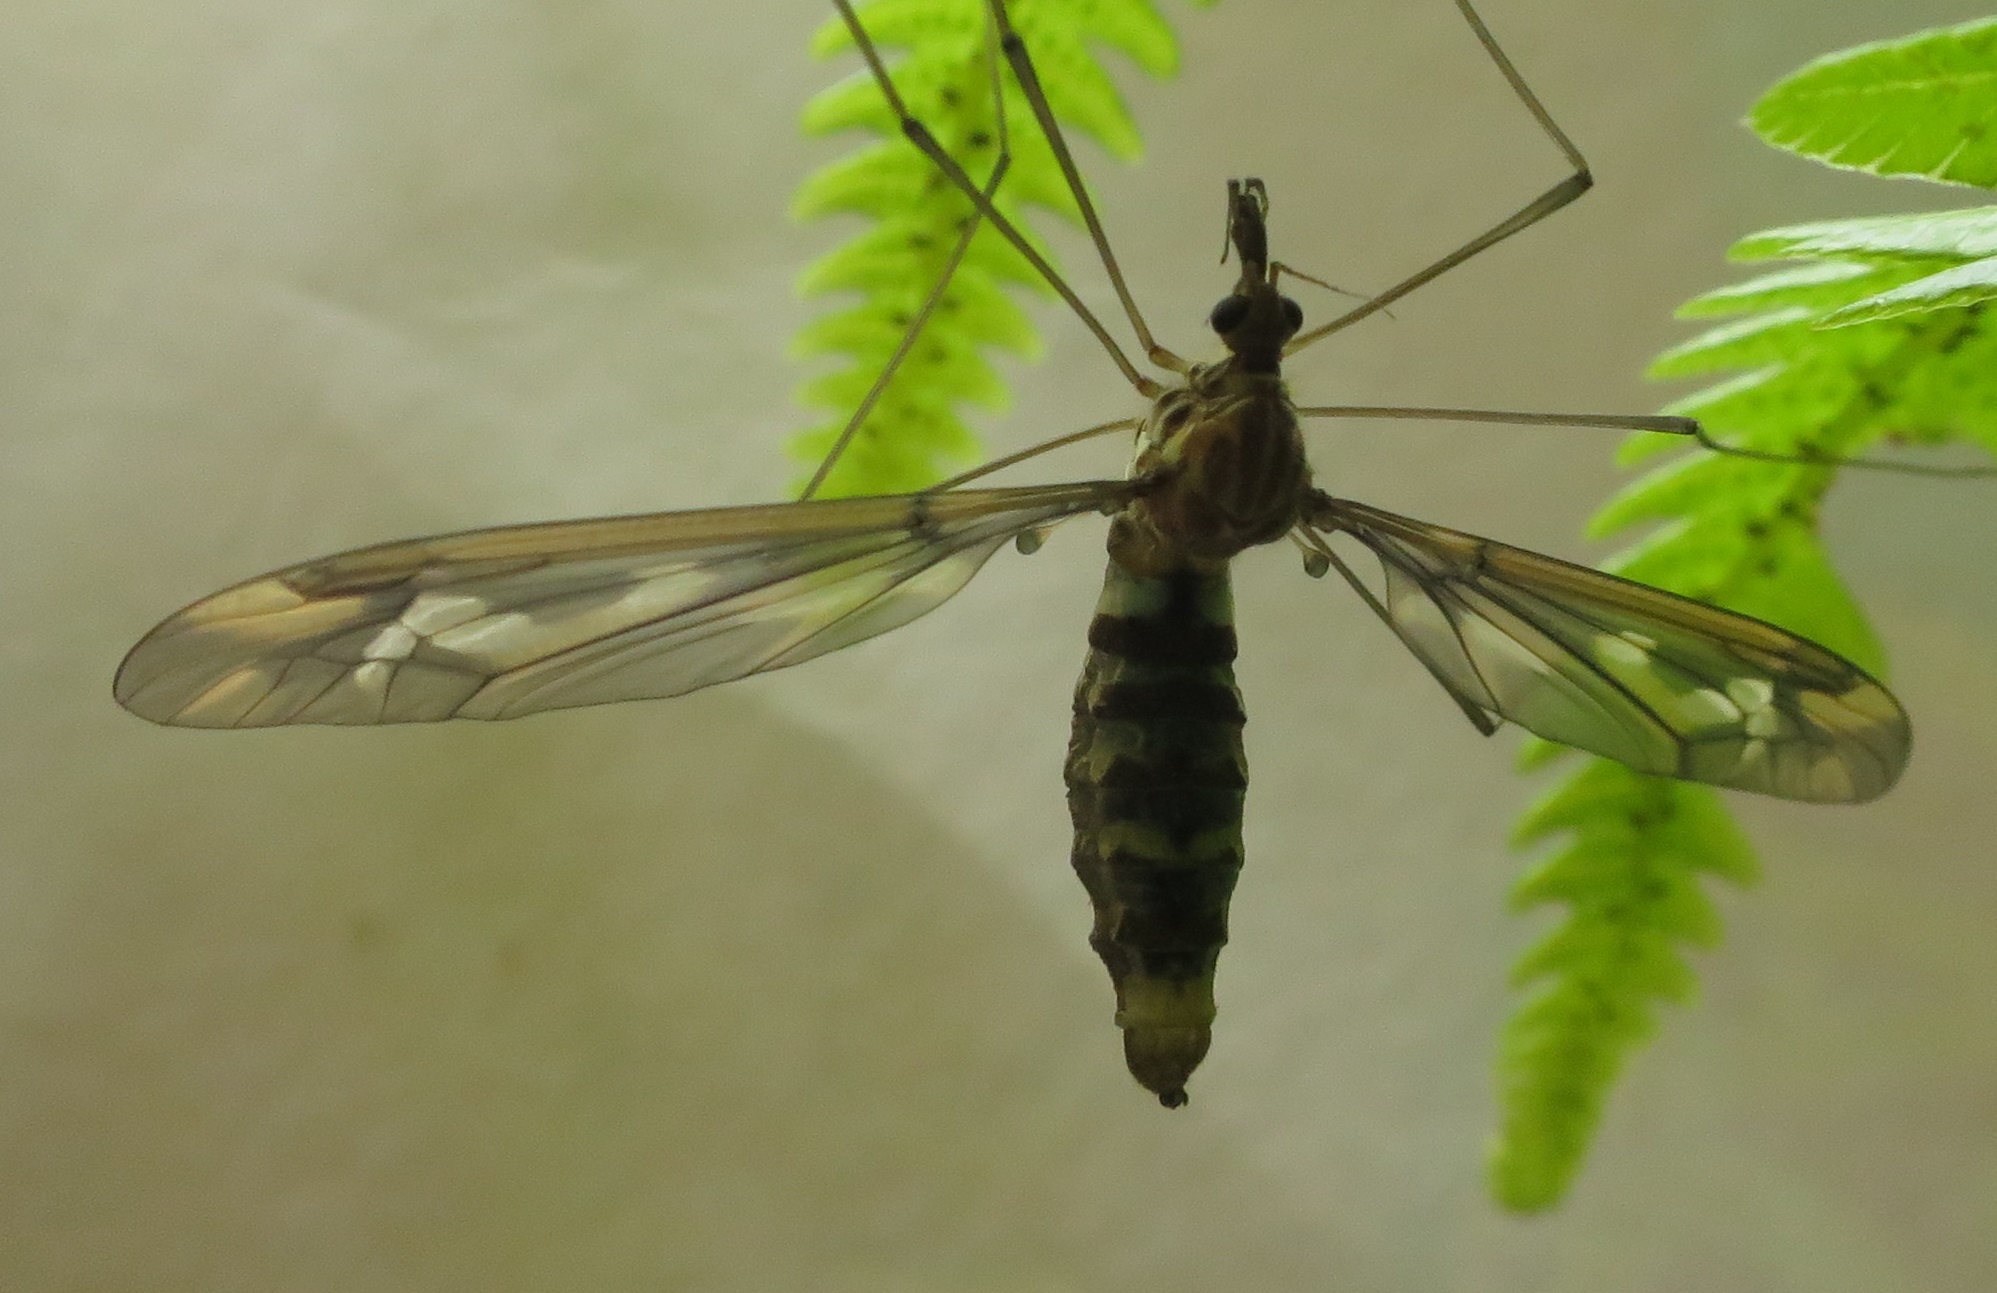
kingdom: Animalia
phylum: Arthropoda
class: Insecta
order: Diptera
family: Tipulidae
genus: Leptotarsus
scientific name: Leptotarsus huttoni
